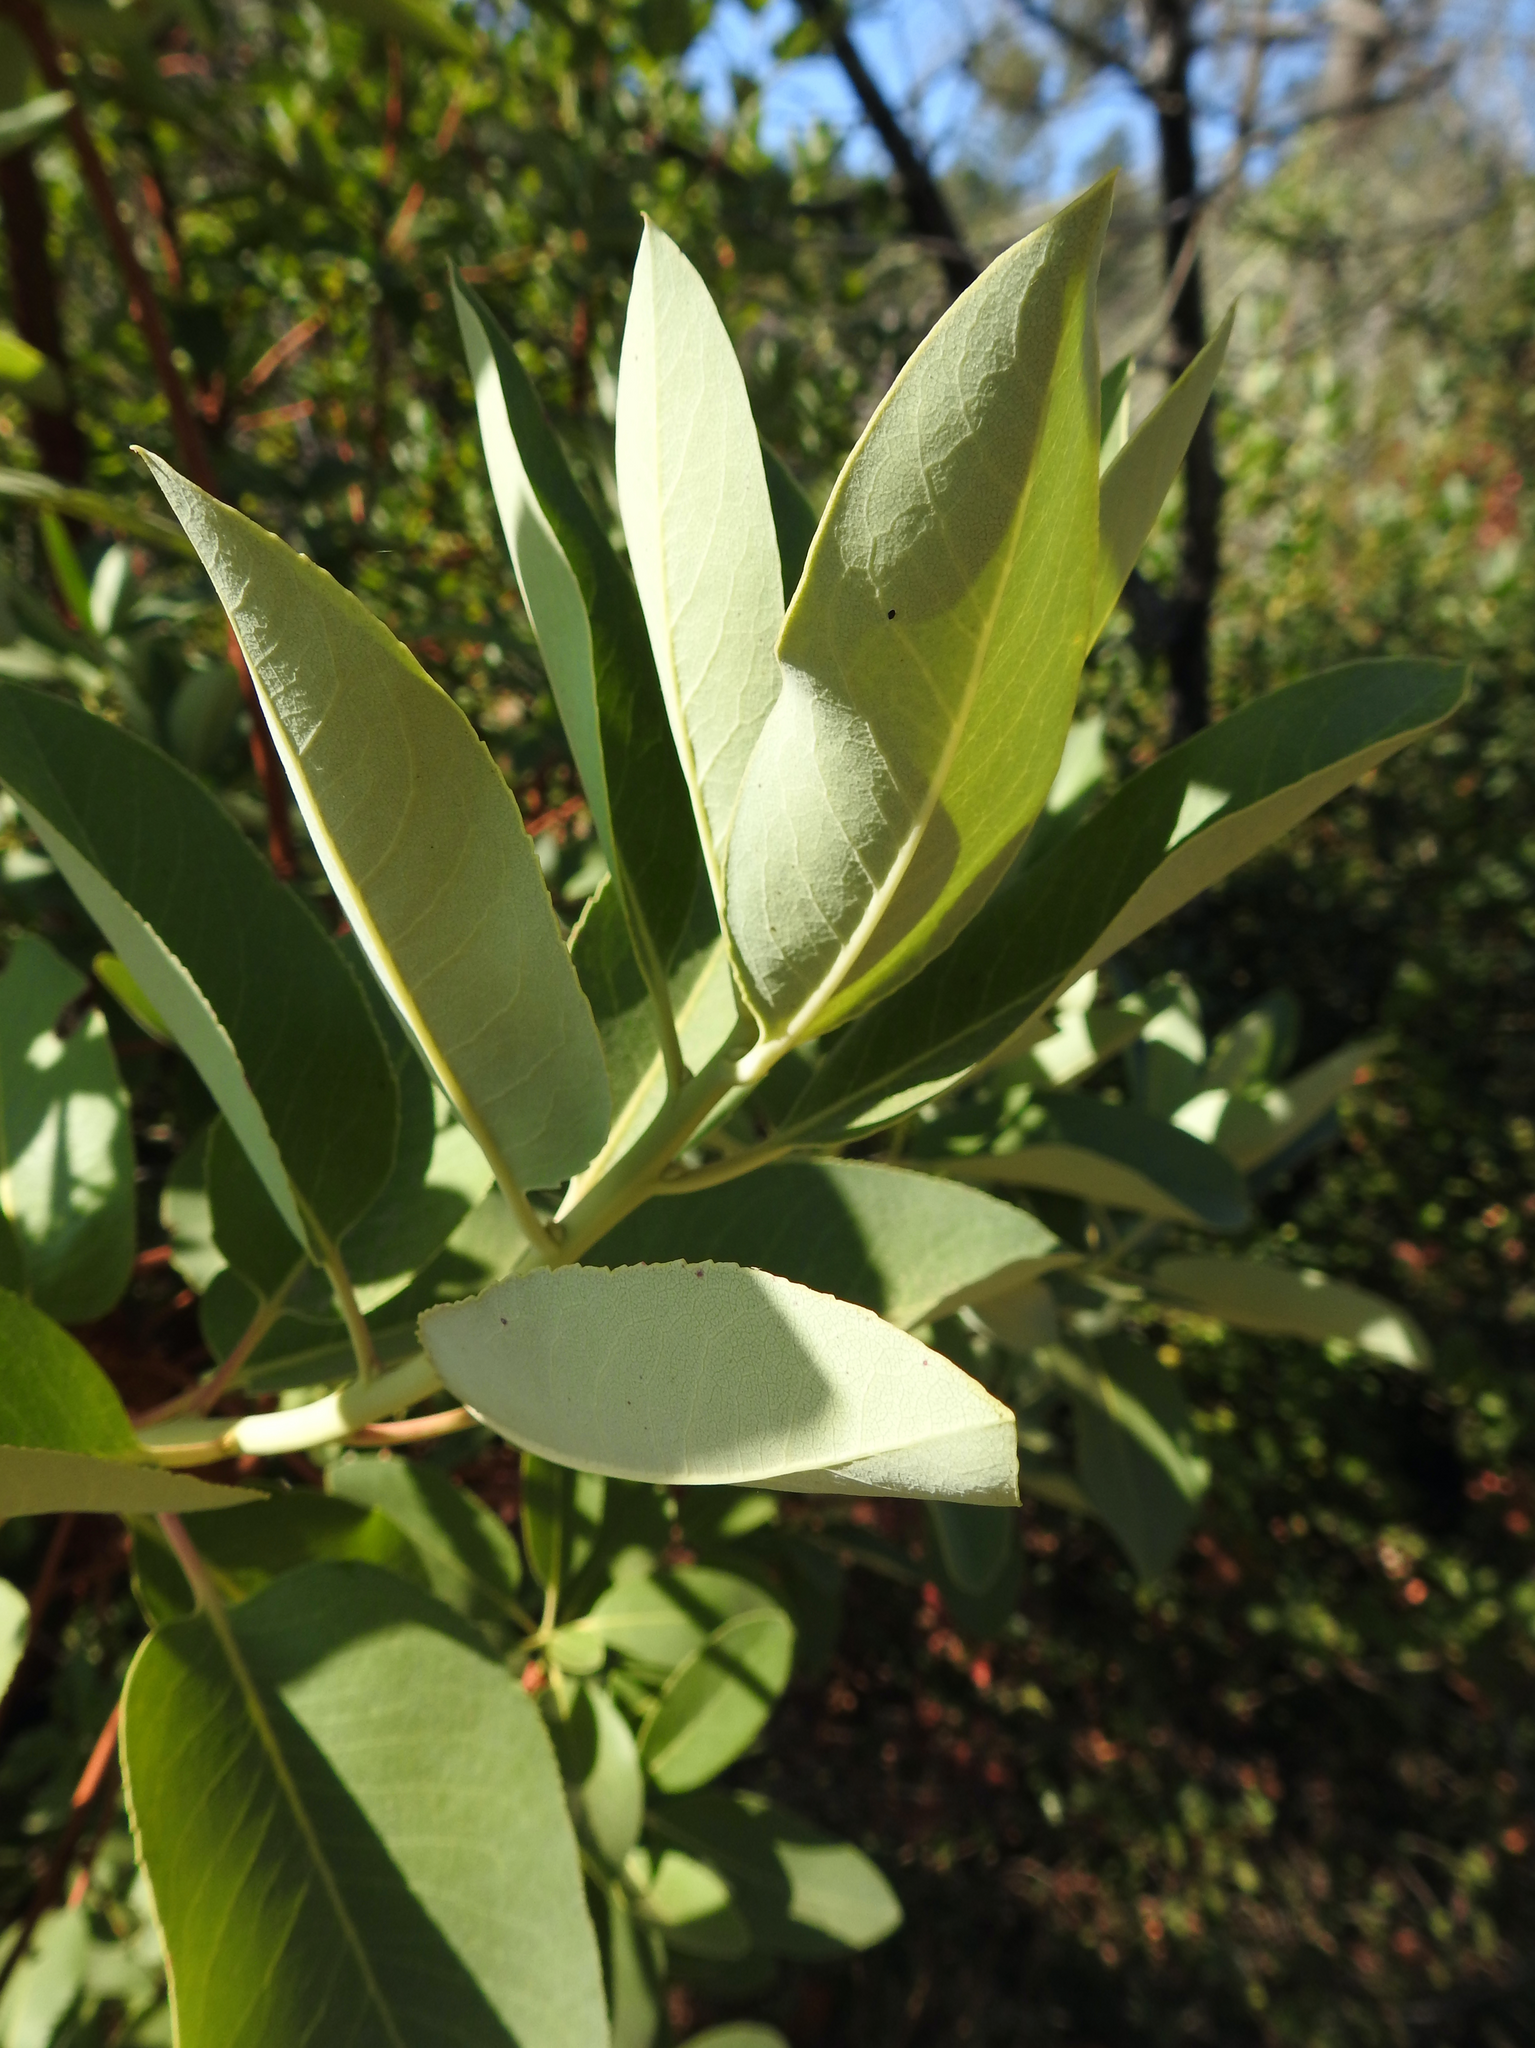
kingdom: Plantae
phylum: Tracheophyta
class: Magnoliopsida
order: Ericales
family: Ericaceae
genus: Arbutus
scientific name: Arbutus menziesii
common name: Pacific madrone
